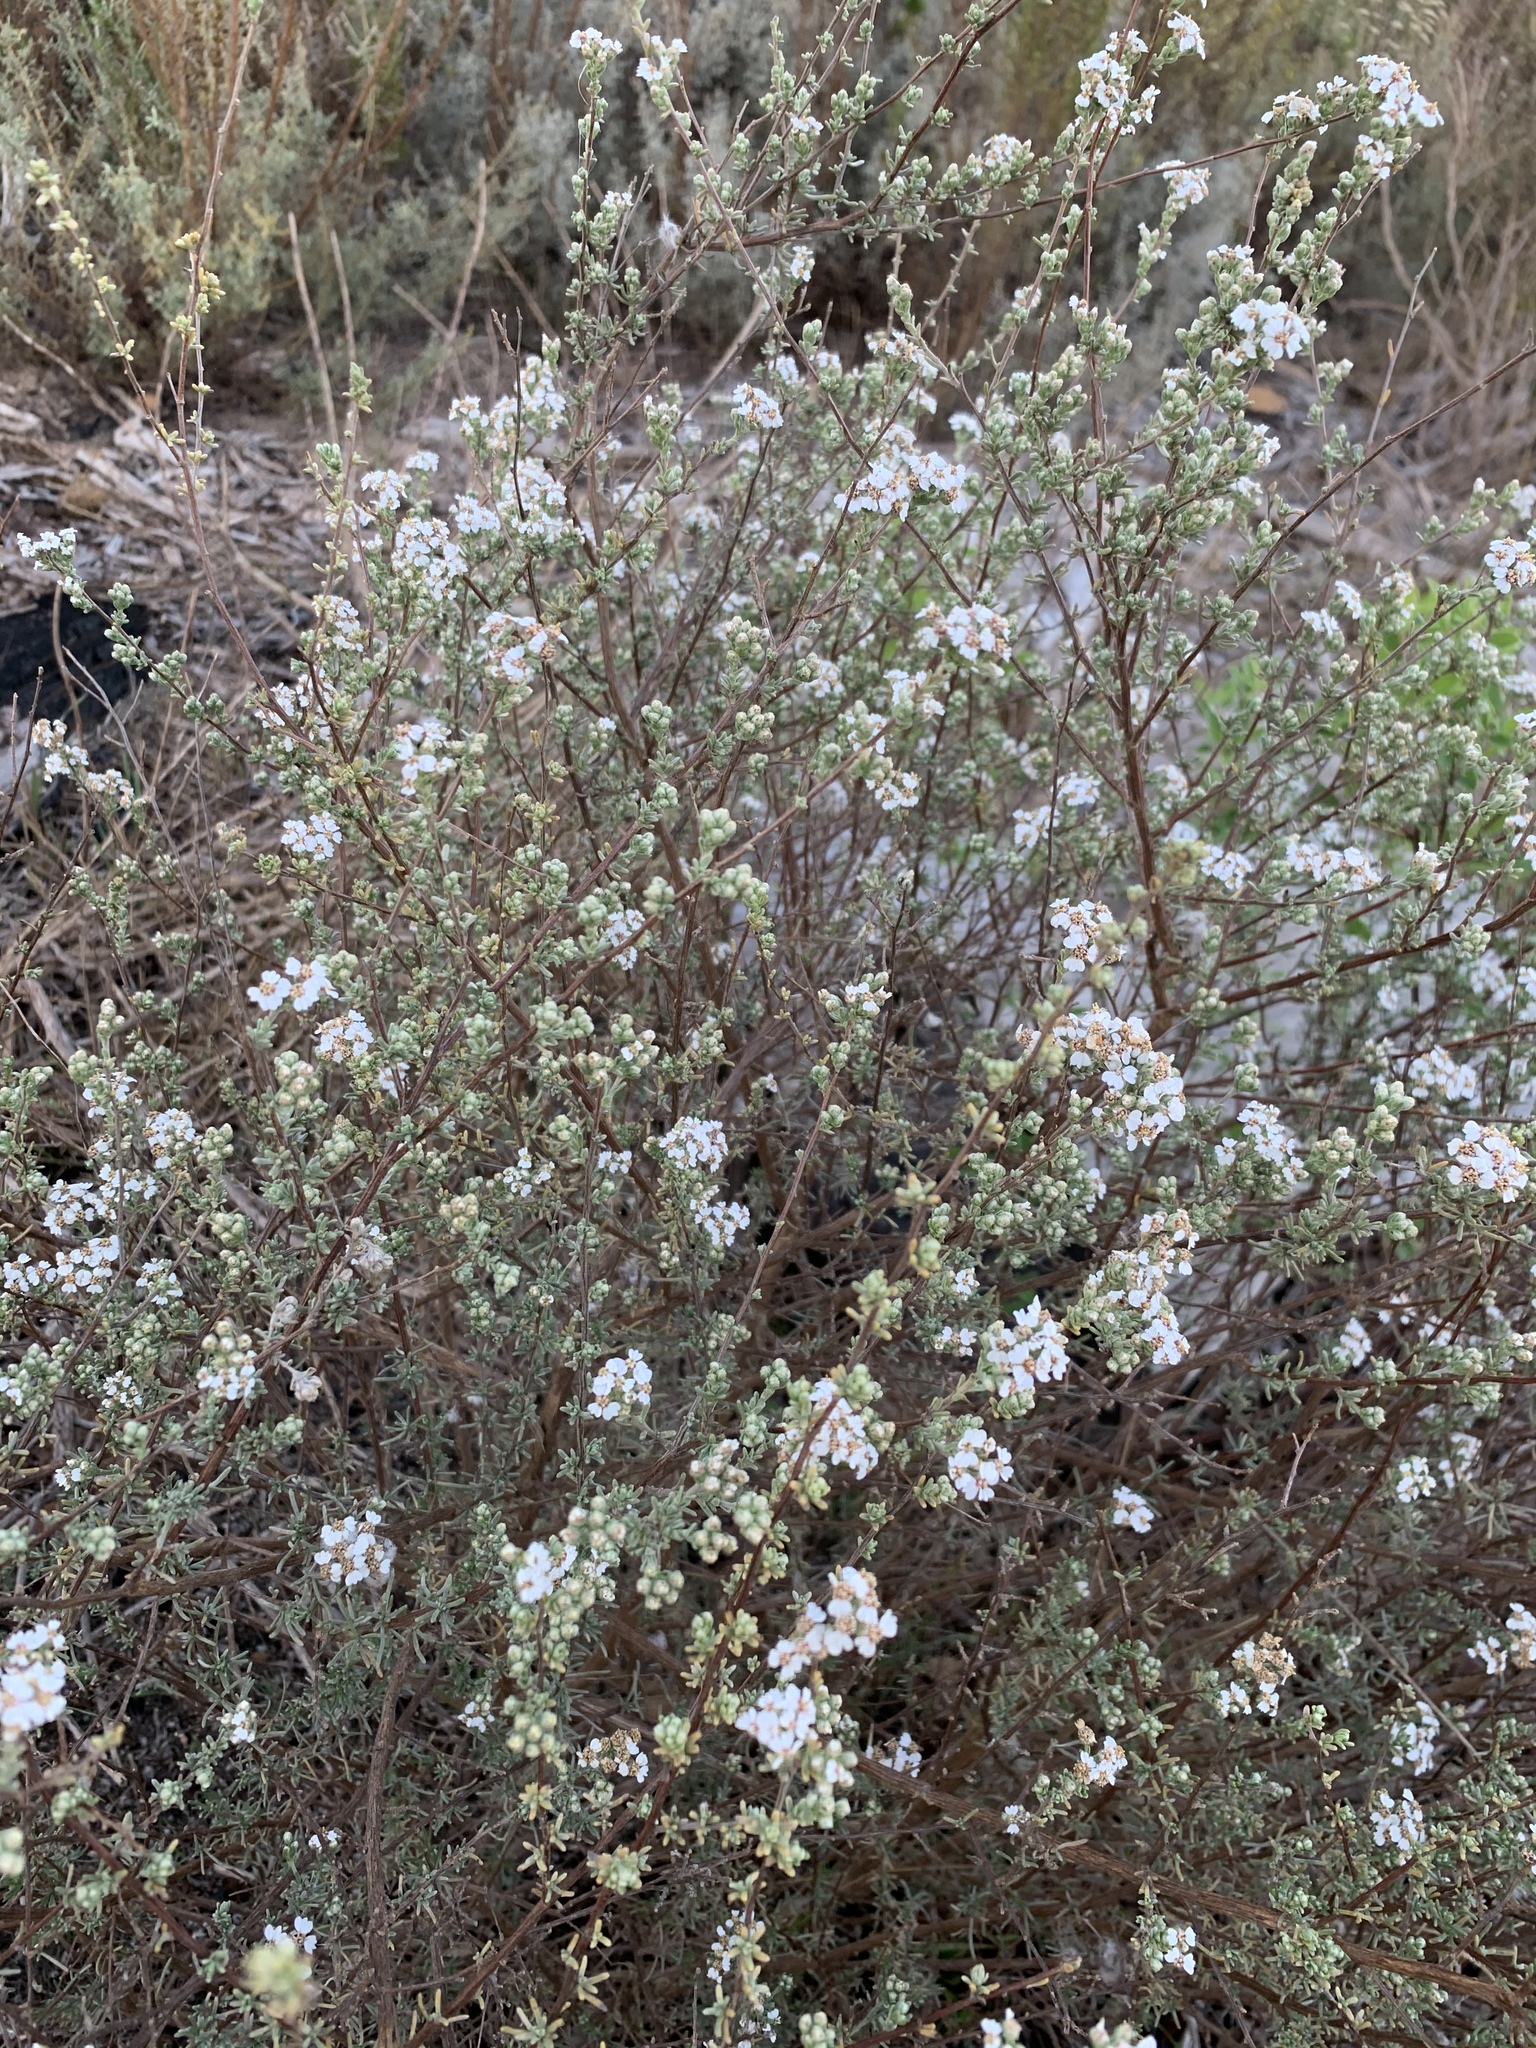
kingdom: Plantae
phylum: Tracheophyta
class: Magnoliopsida
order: Asterales
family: Asteraceae
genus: Eriocephalus
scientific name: Eriocephalus africanus
